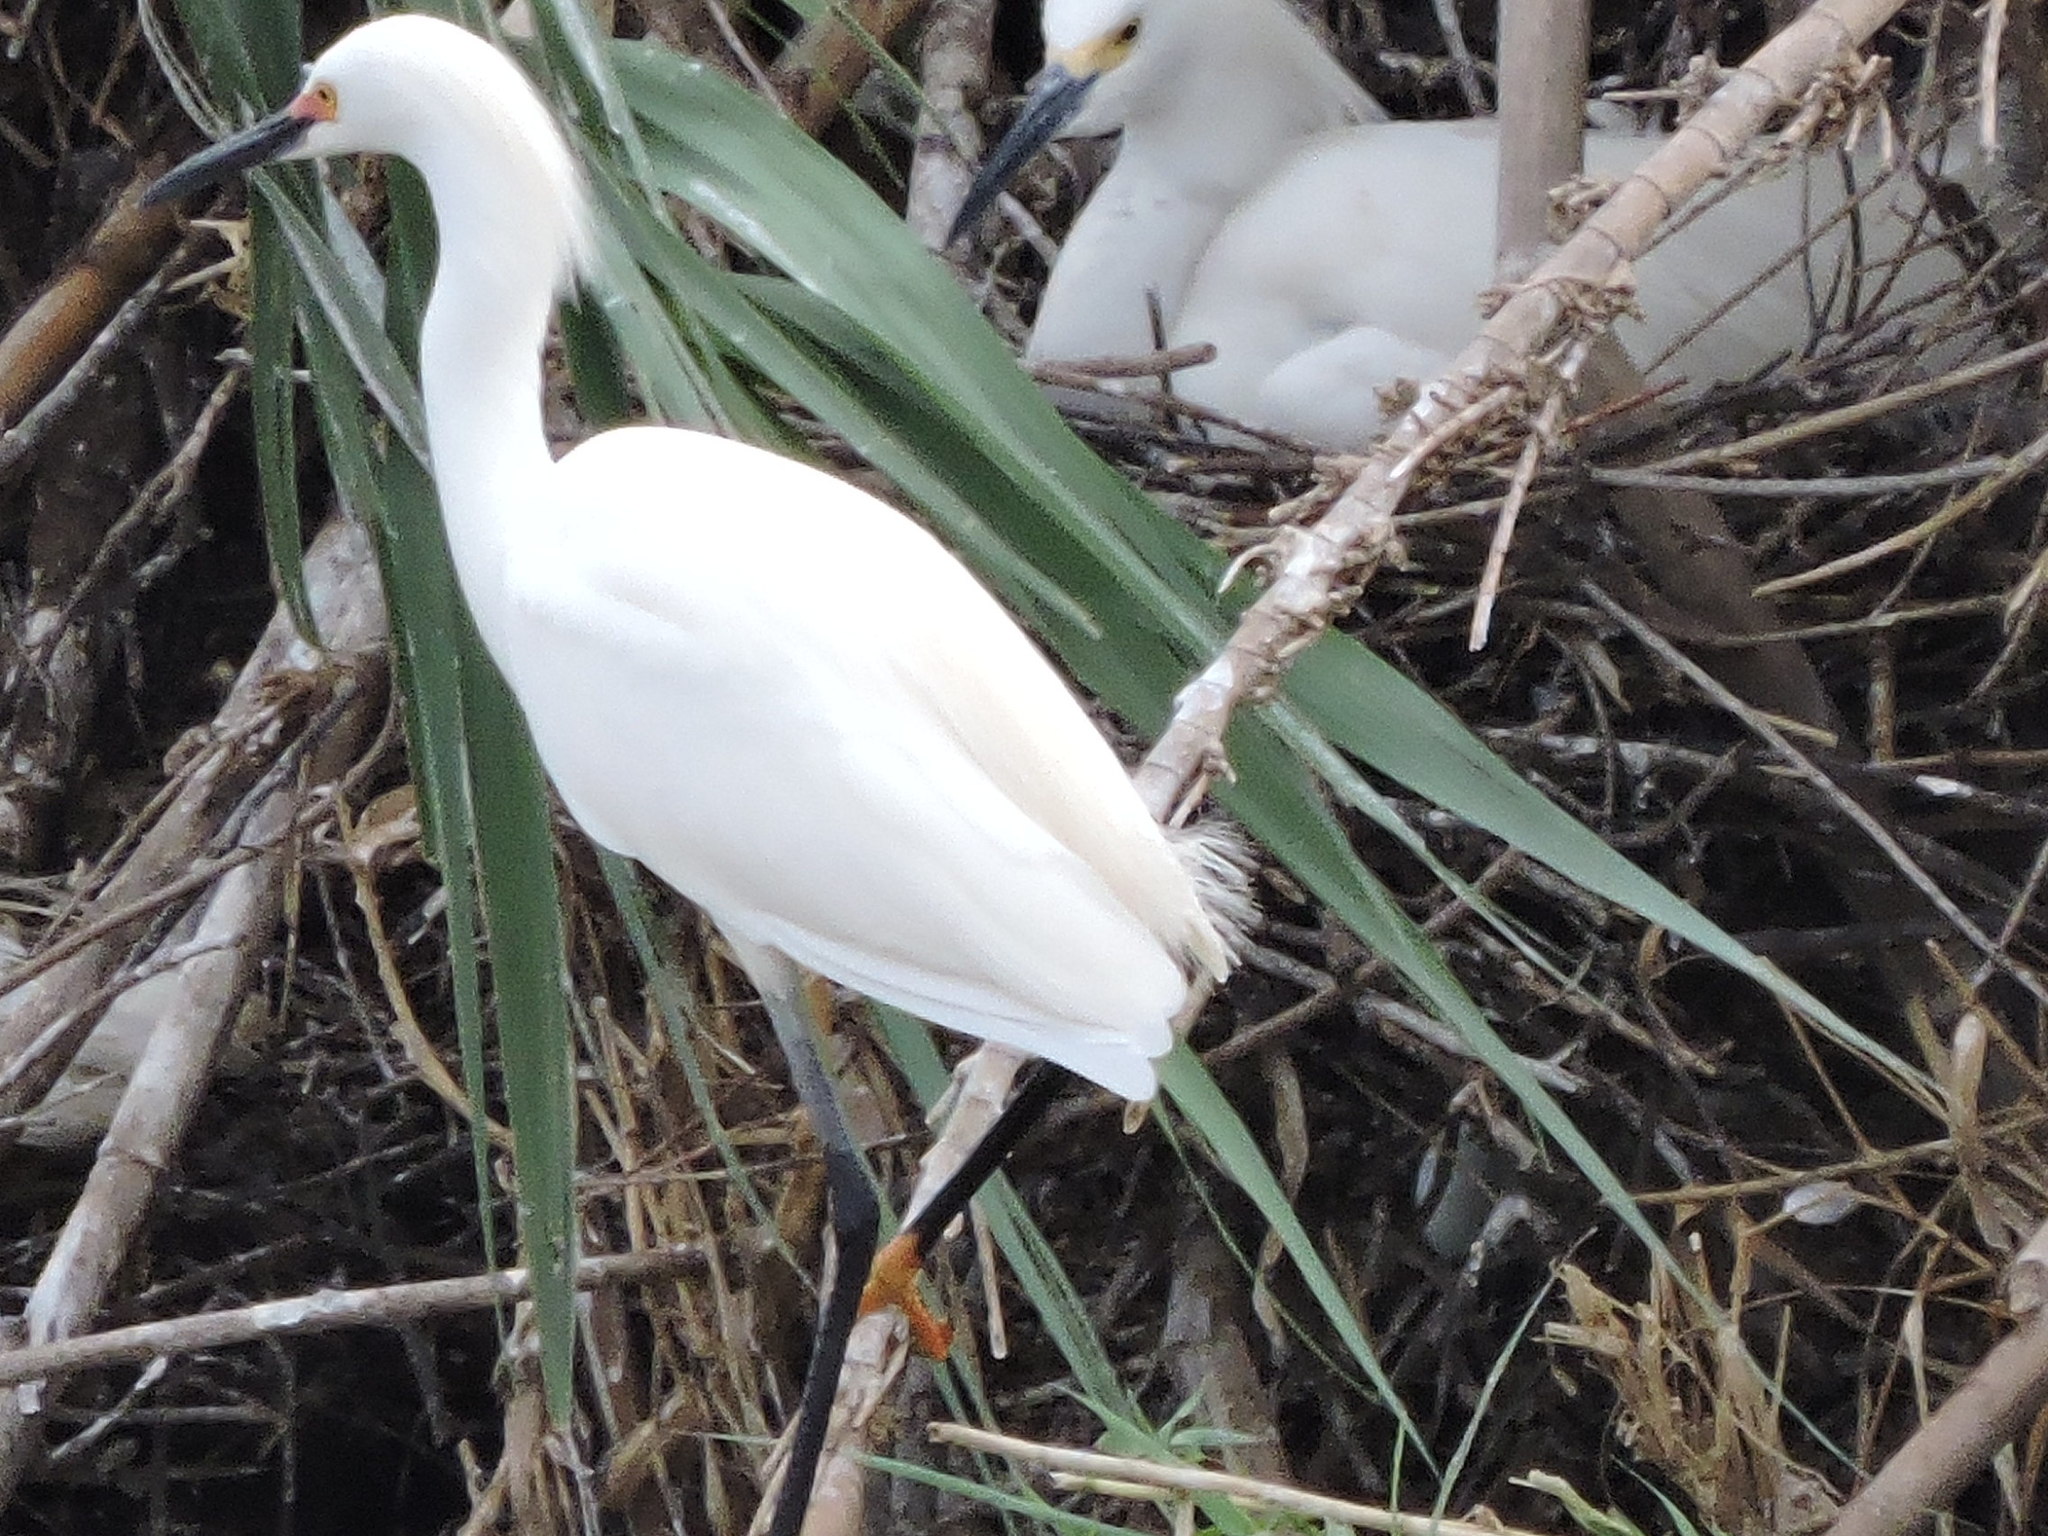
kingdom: Animalia
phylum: Chordata
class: Aves
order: Pelecaniformes
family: Ardeidae
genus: Egretta
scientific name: Egretta thula
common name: Snowy egret
